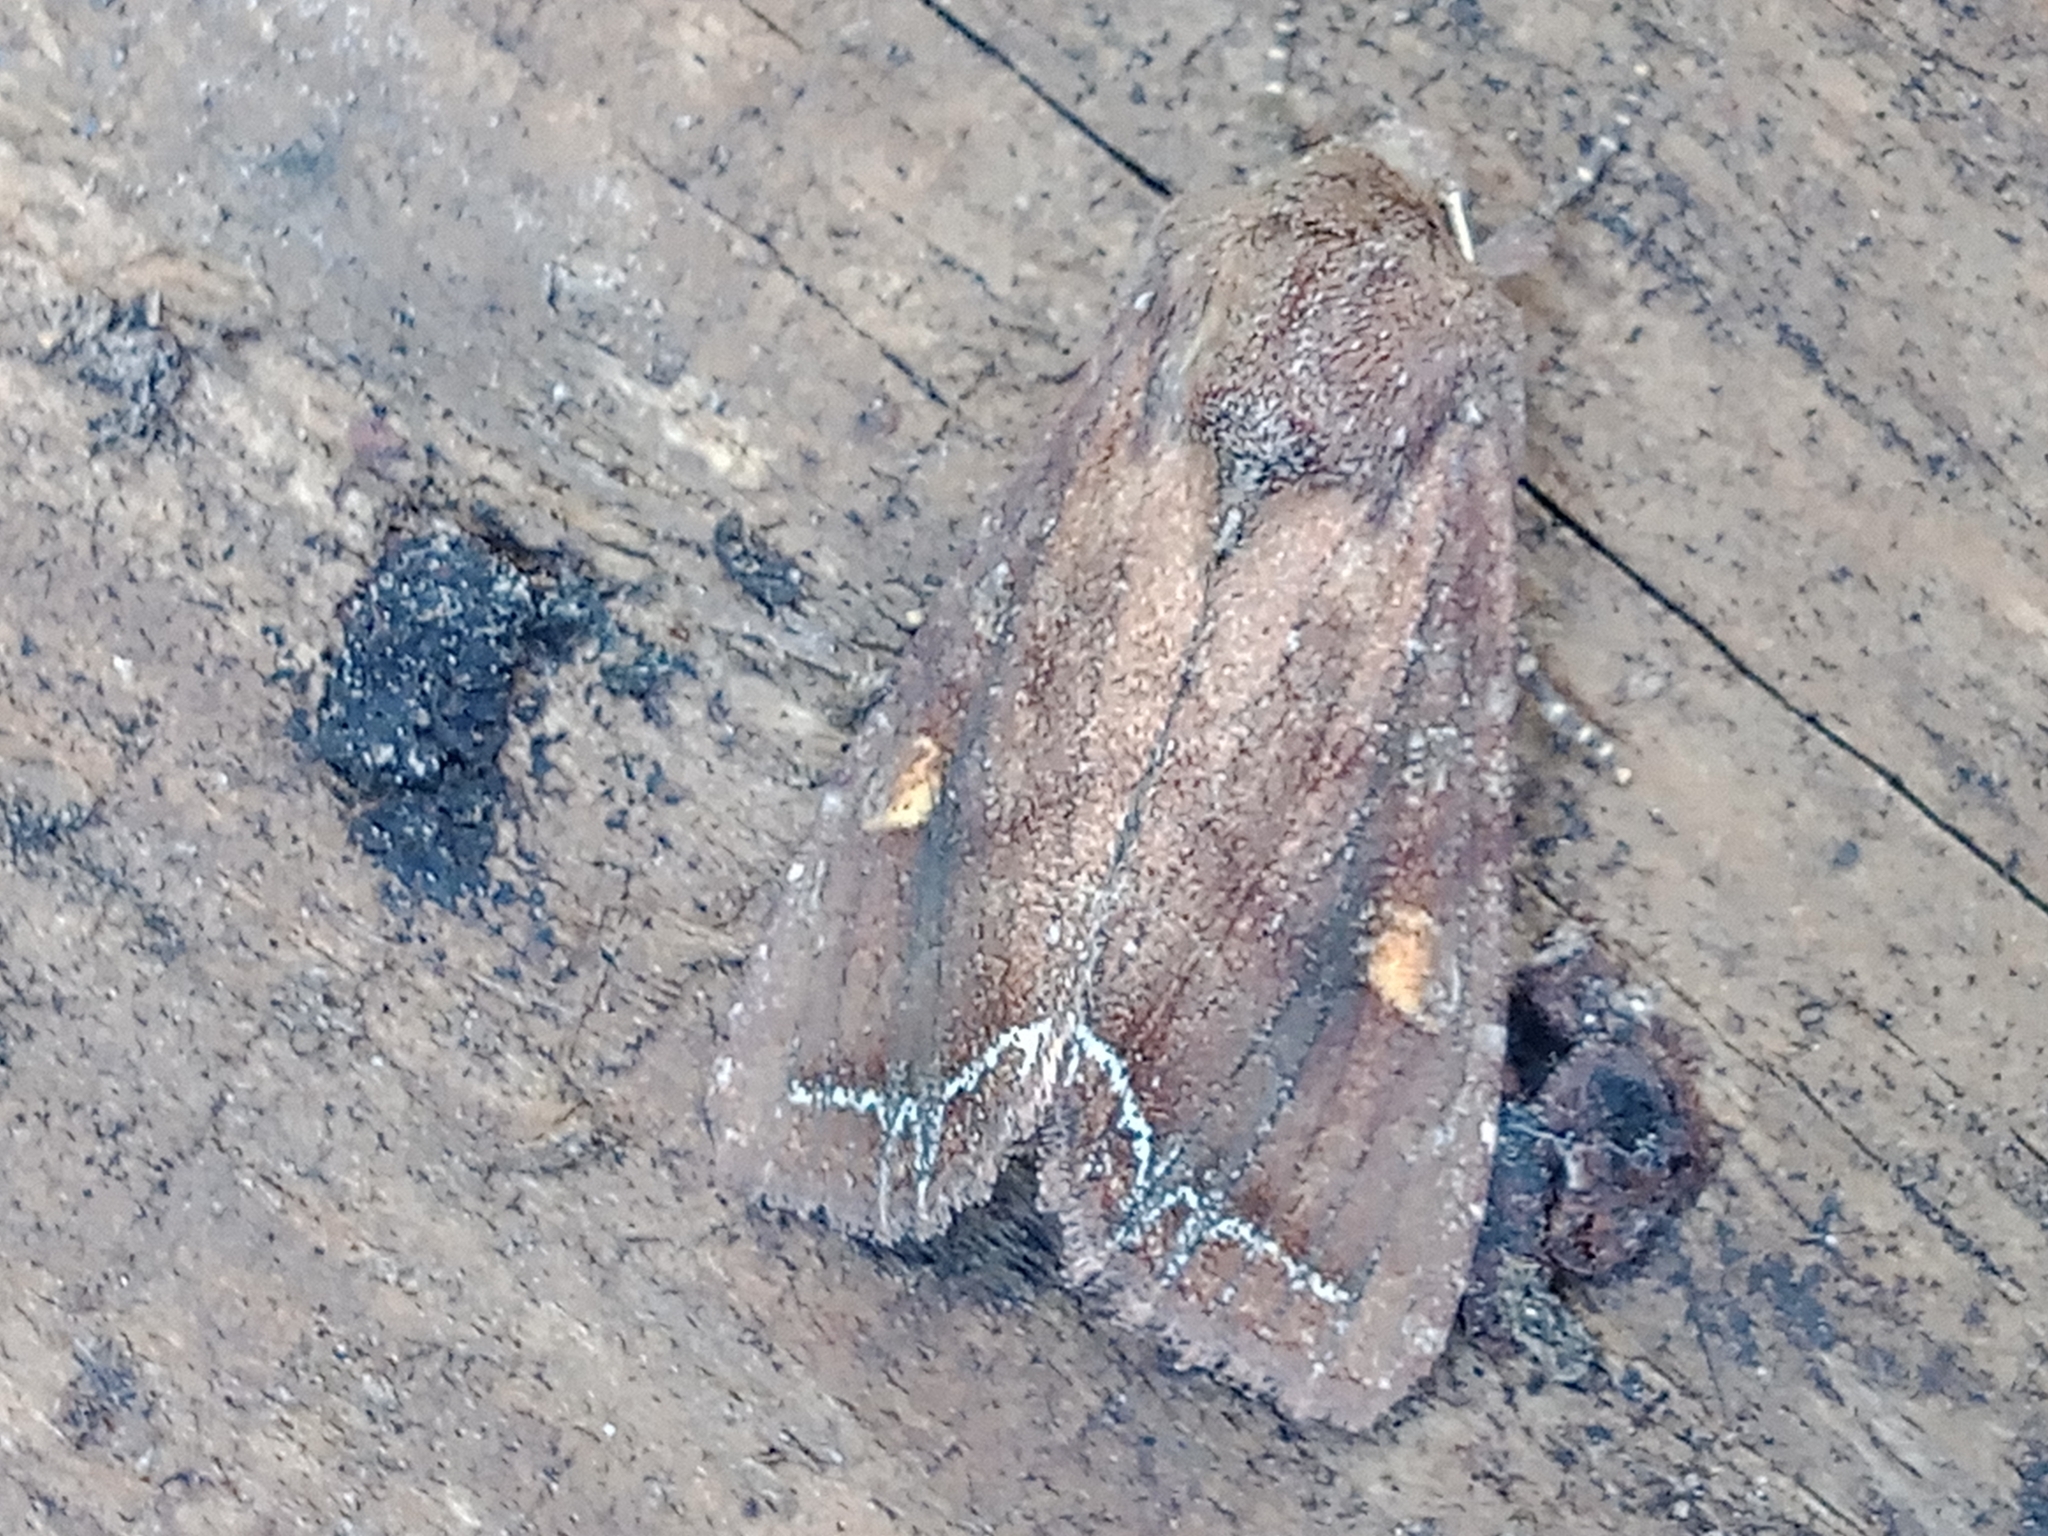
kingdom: Animalia
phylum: Arthropoda
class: Insecta
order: Lepidoptera
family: Noctuidae
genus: Lacanobia
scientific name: Lacanobia oleracea
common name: Bright-line brown-eye
